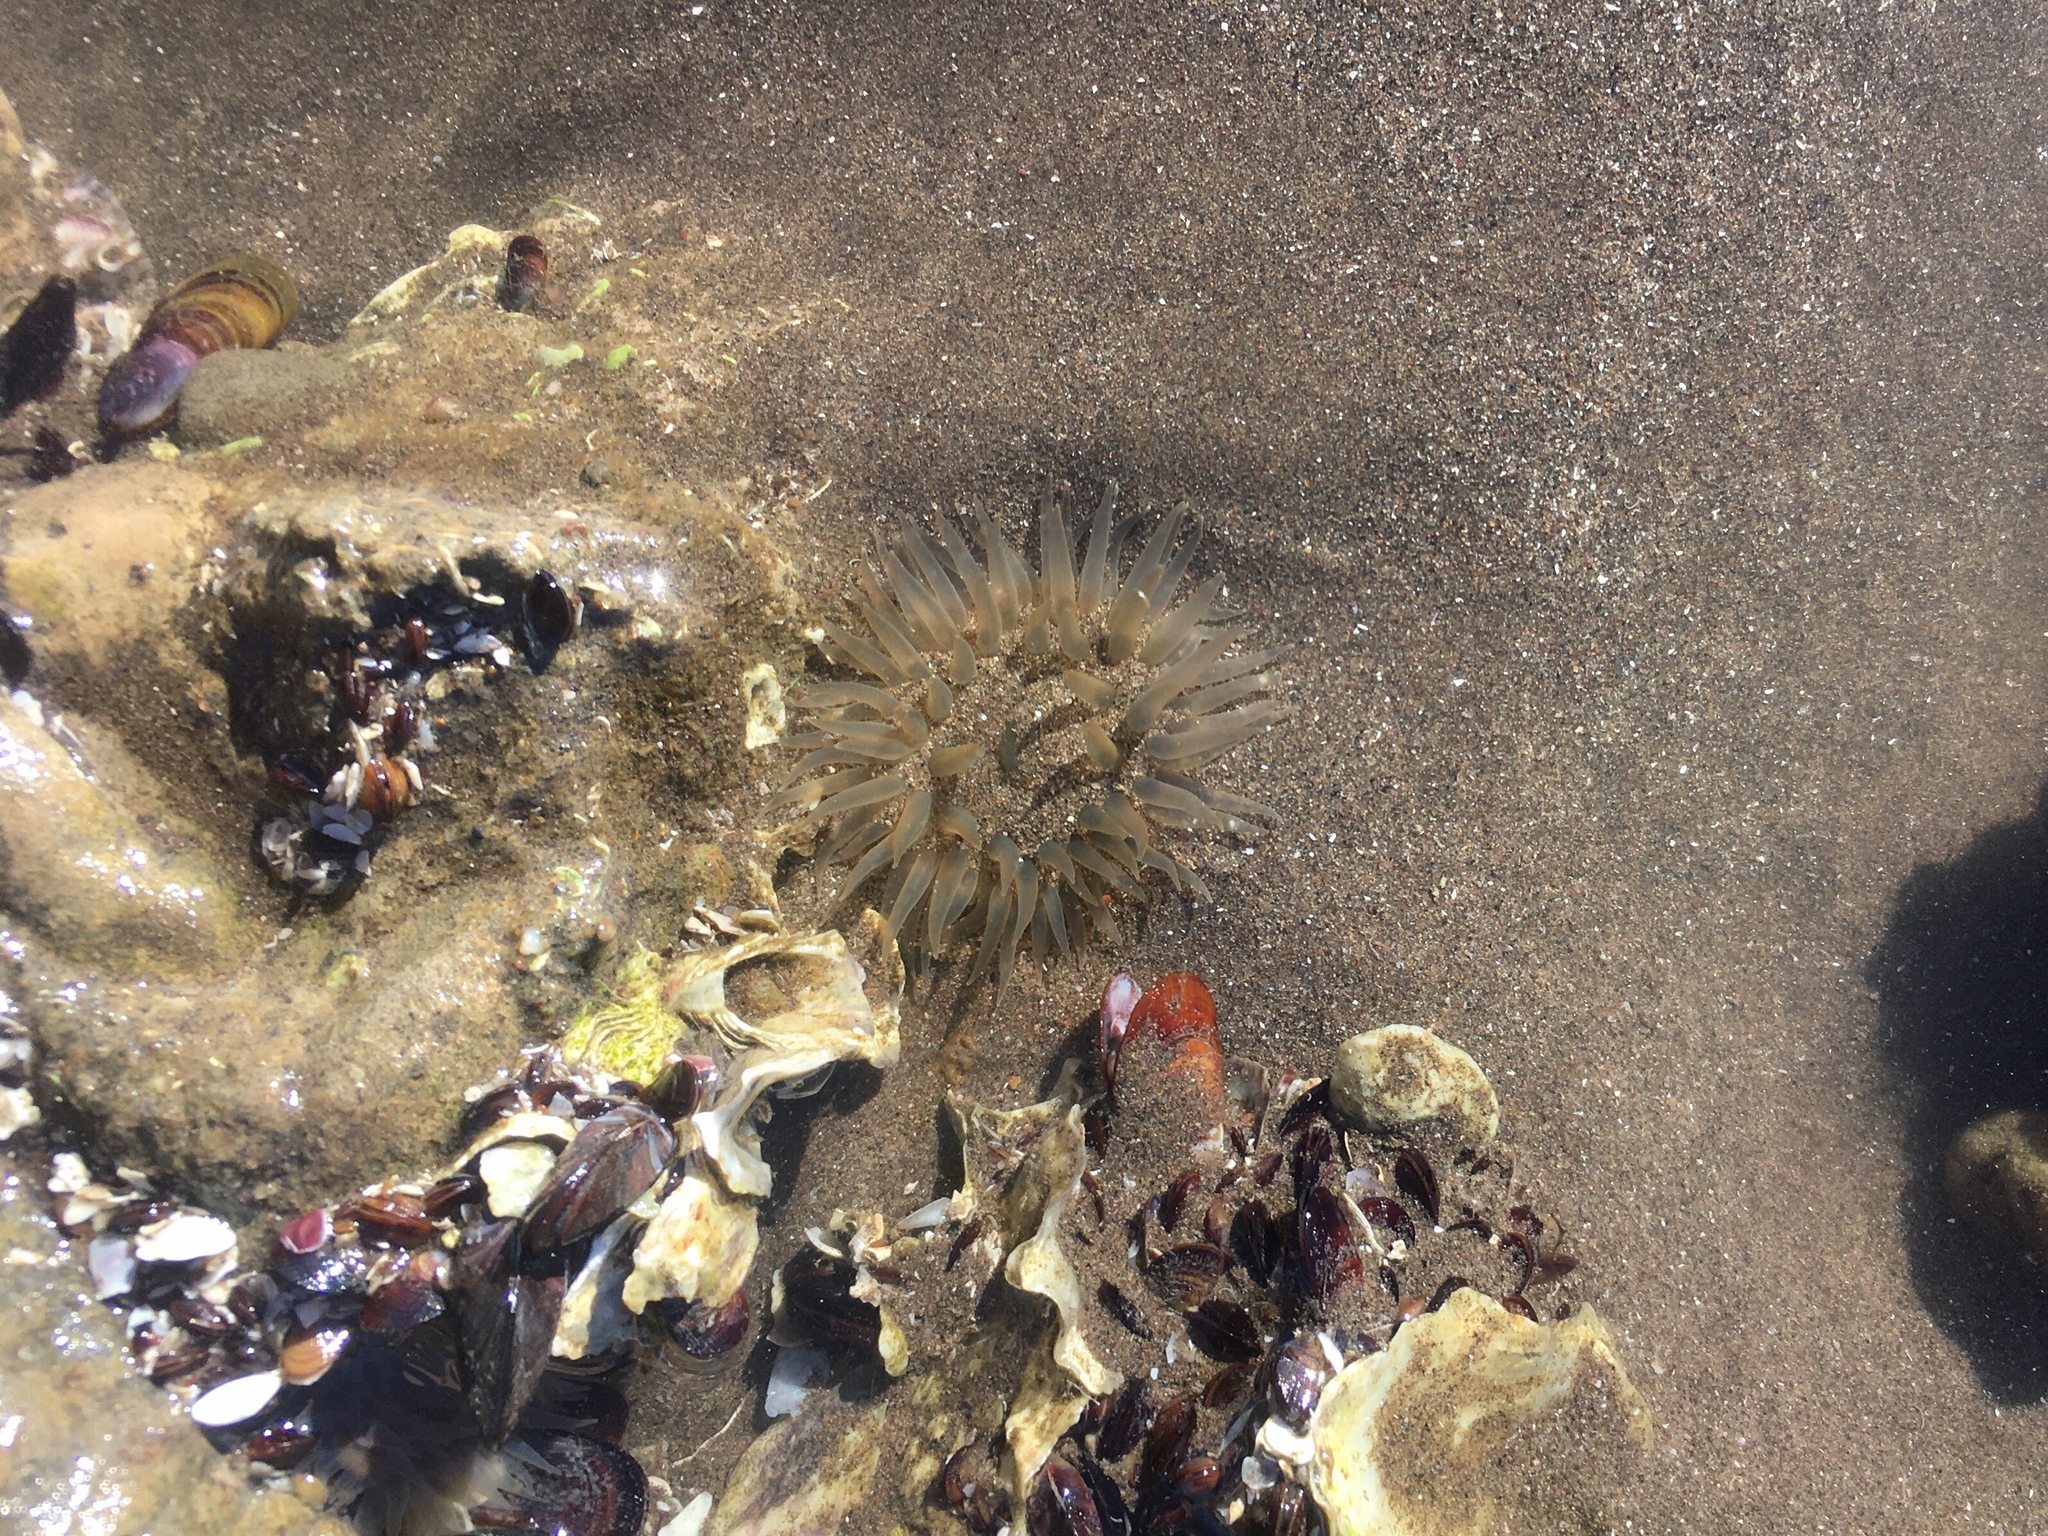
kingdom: Animalia
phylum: Cnidaria
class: Anthozoa
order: Actiniaria
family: Actiniidae
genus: Bunodosoma
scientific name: Bunodosoma zamponii
